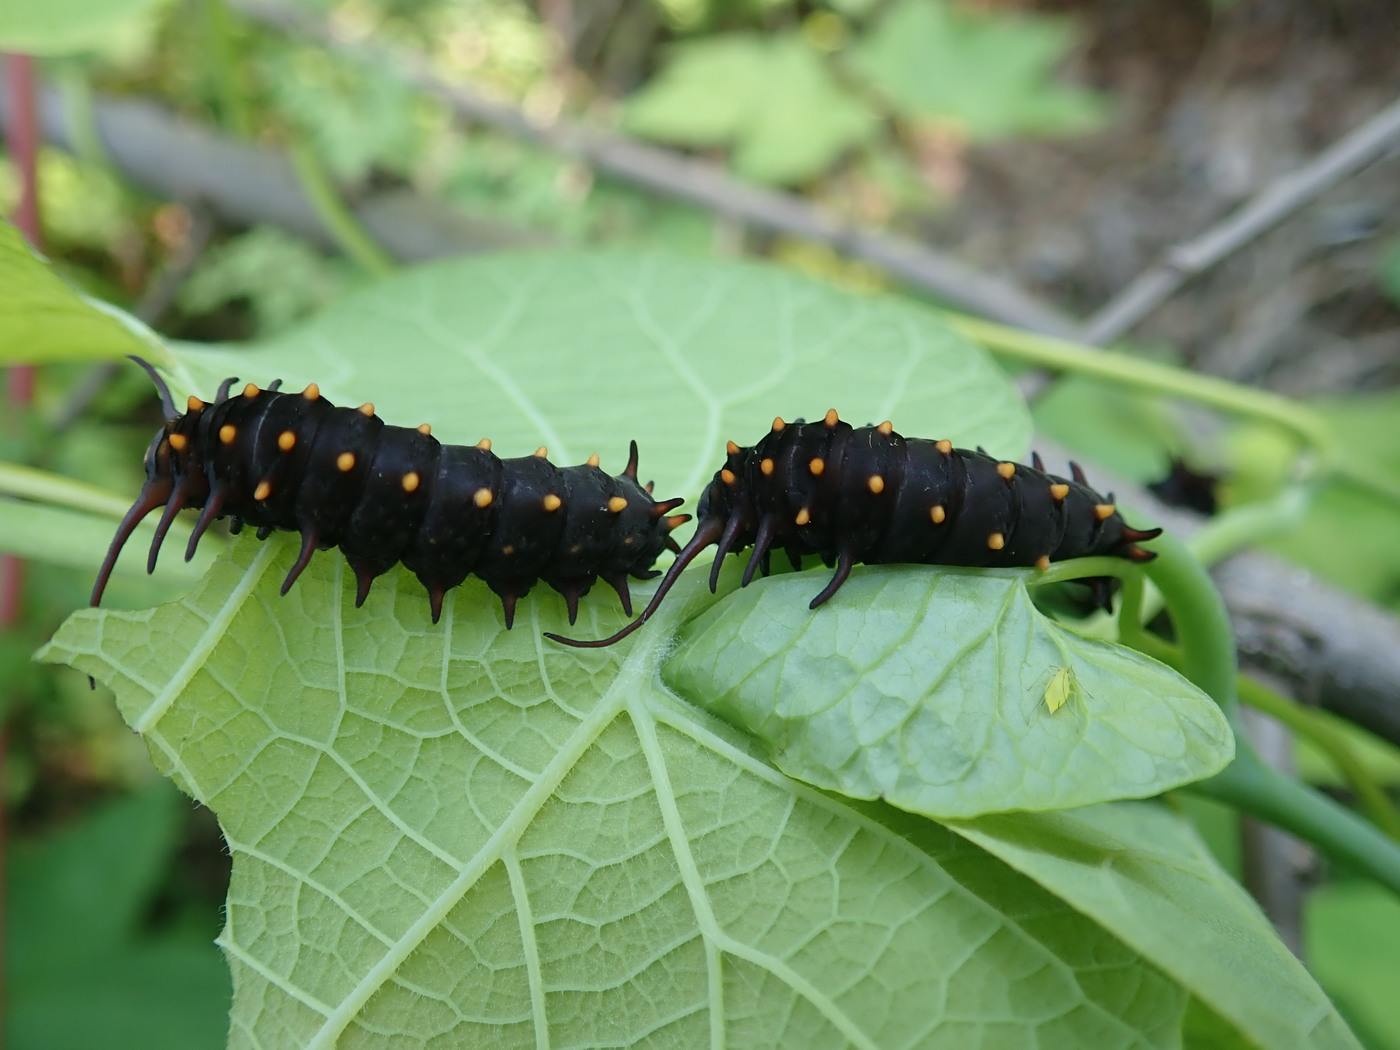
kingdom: Animalia
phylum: Arthropoda
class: Insecta
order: Lepidoptera
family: Papilionidae
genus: Battus
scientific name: Battus philenor
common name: Pipevine swallowtail
